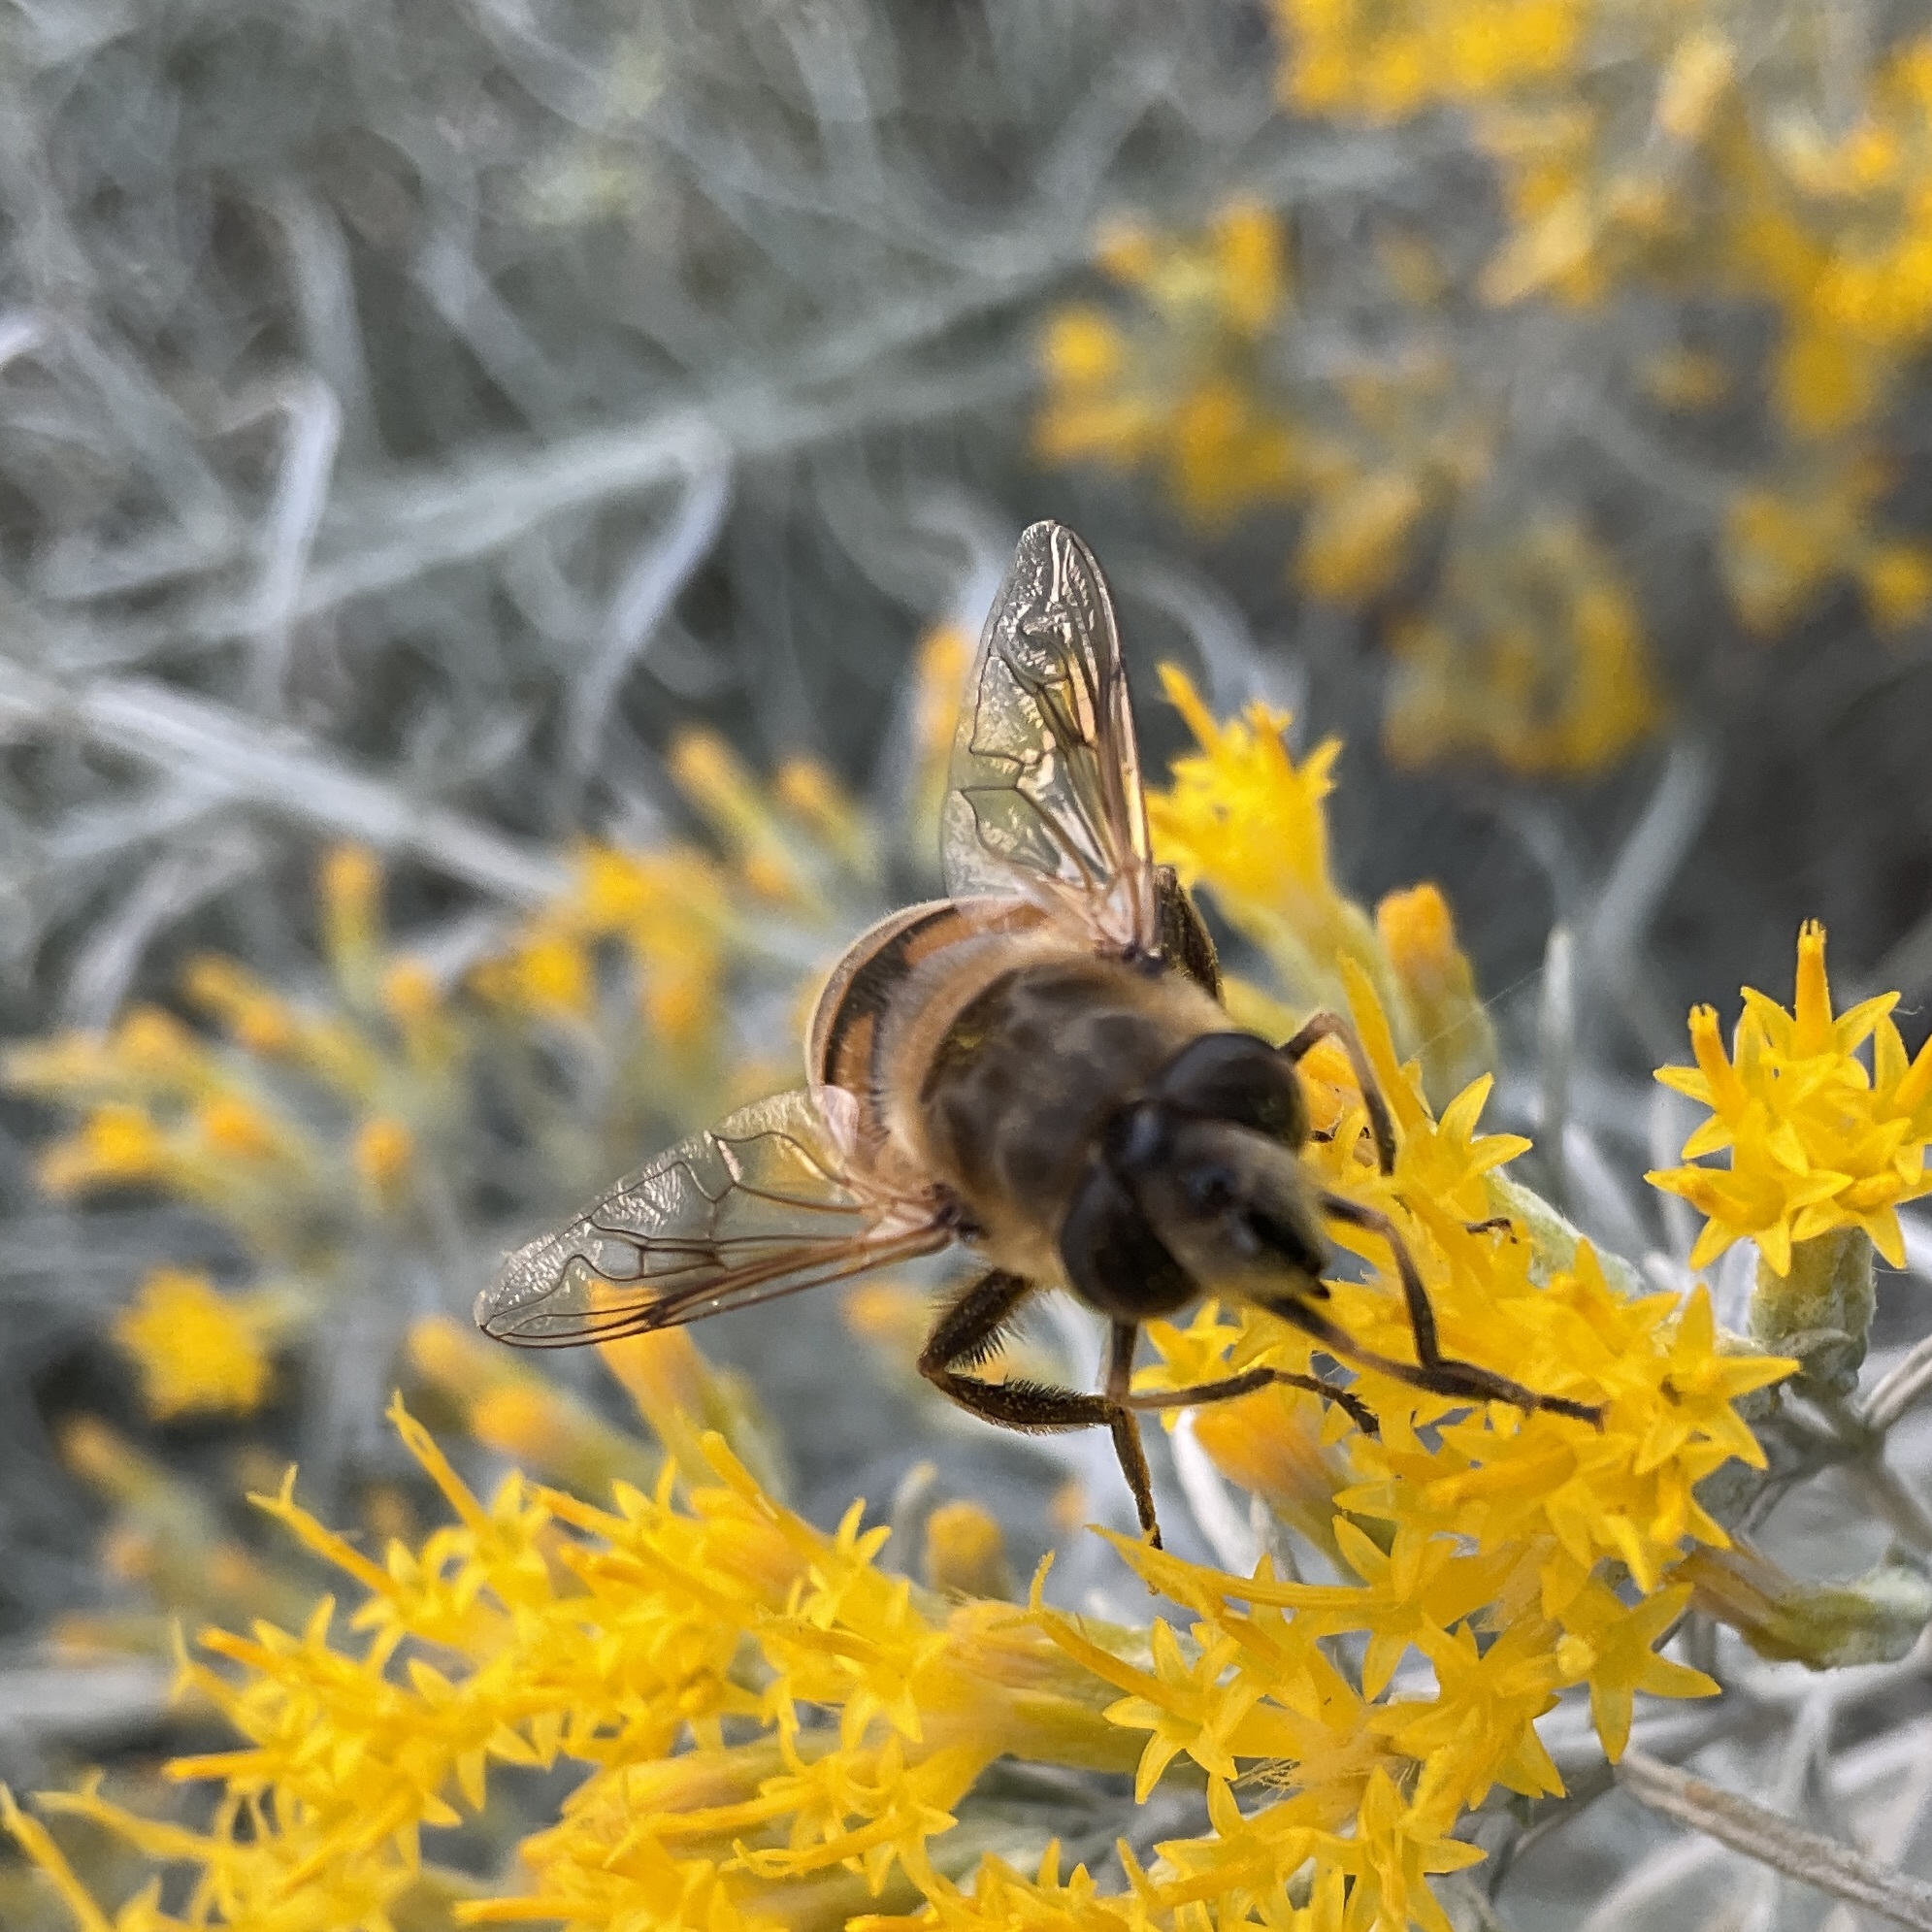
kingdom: Animalia
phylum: Arthropoda
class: Insecta
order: Diptera
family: Syrphidae
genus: Eristalis
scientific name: Eristalis tenax
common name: Drone fly
